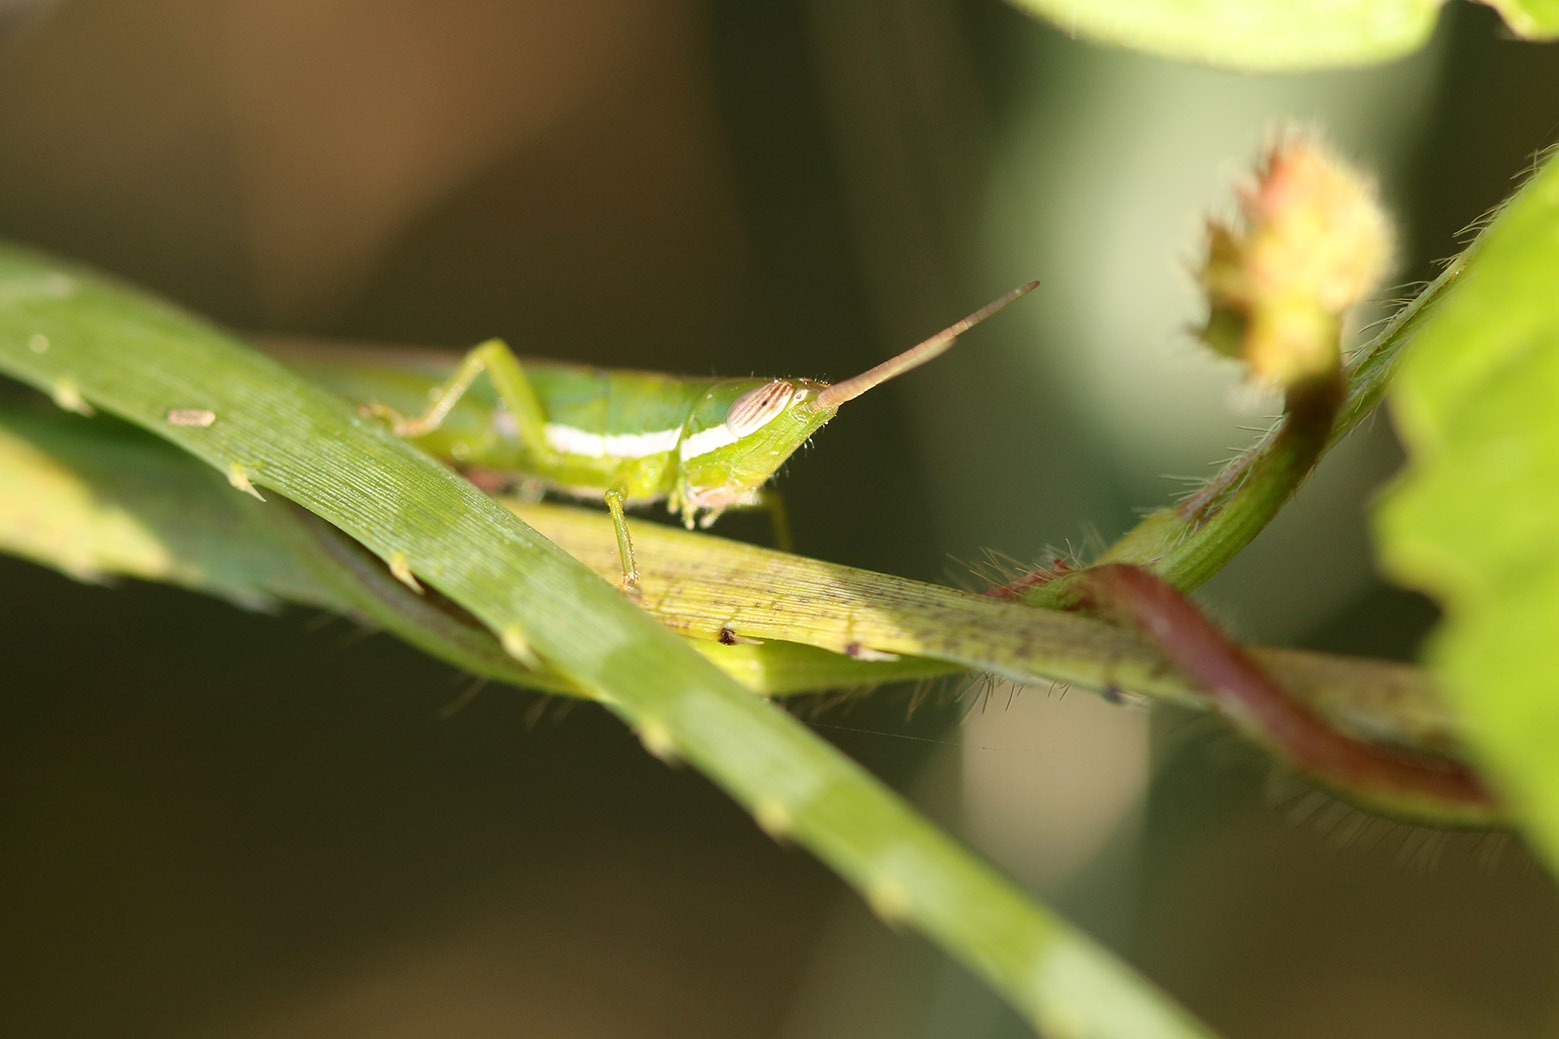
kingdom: Animalia
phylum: Arthropoda
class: Insecta
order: Orthoptera
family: Acrididae
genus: Tucayaca
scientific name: Tucayaca gracilis
